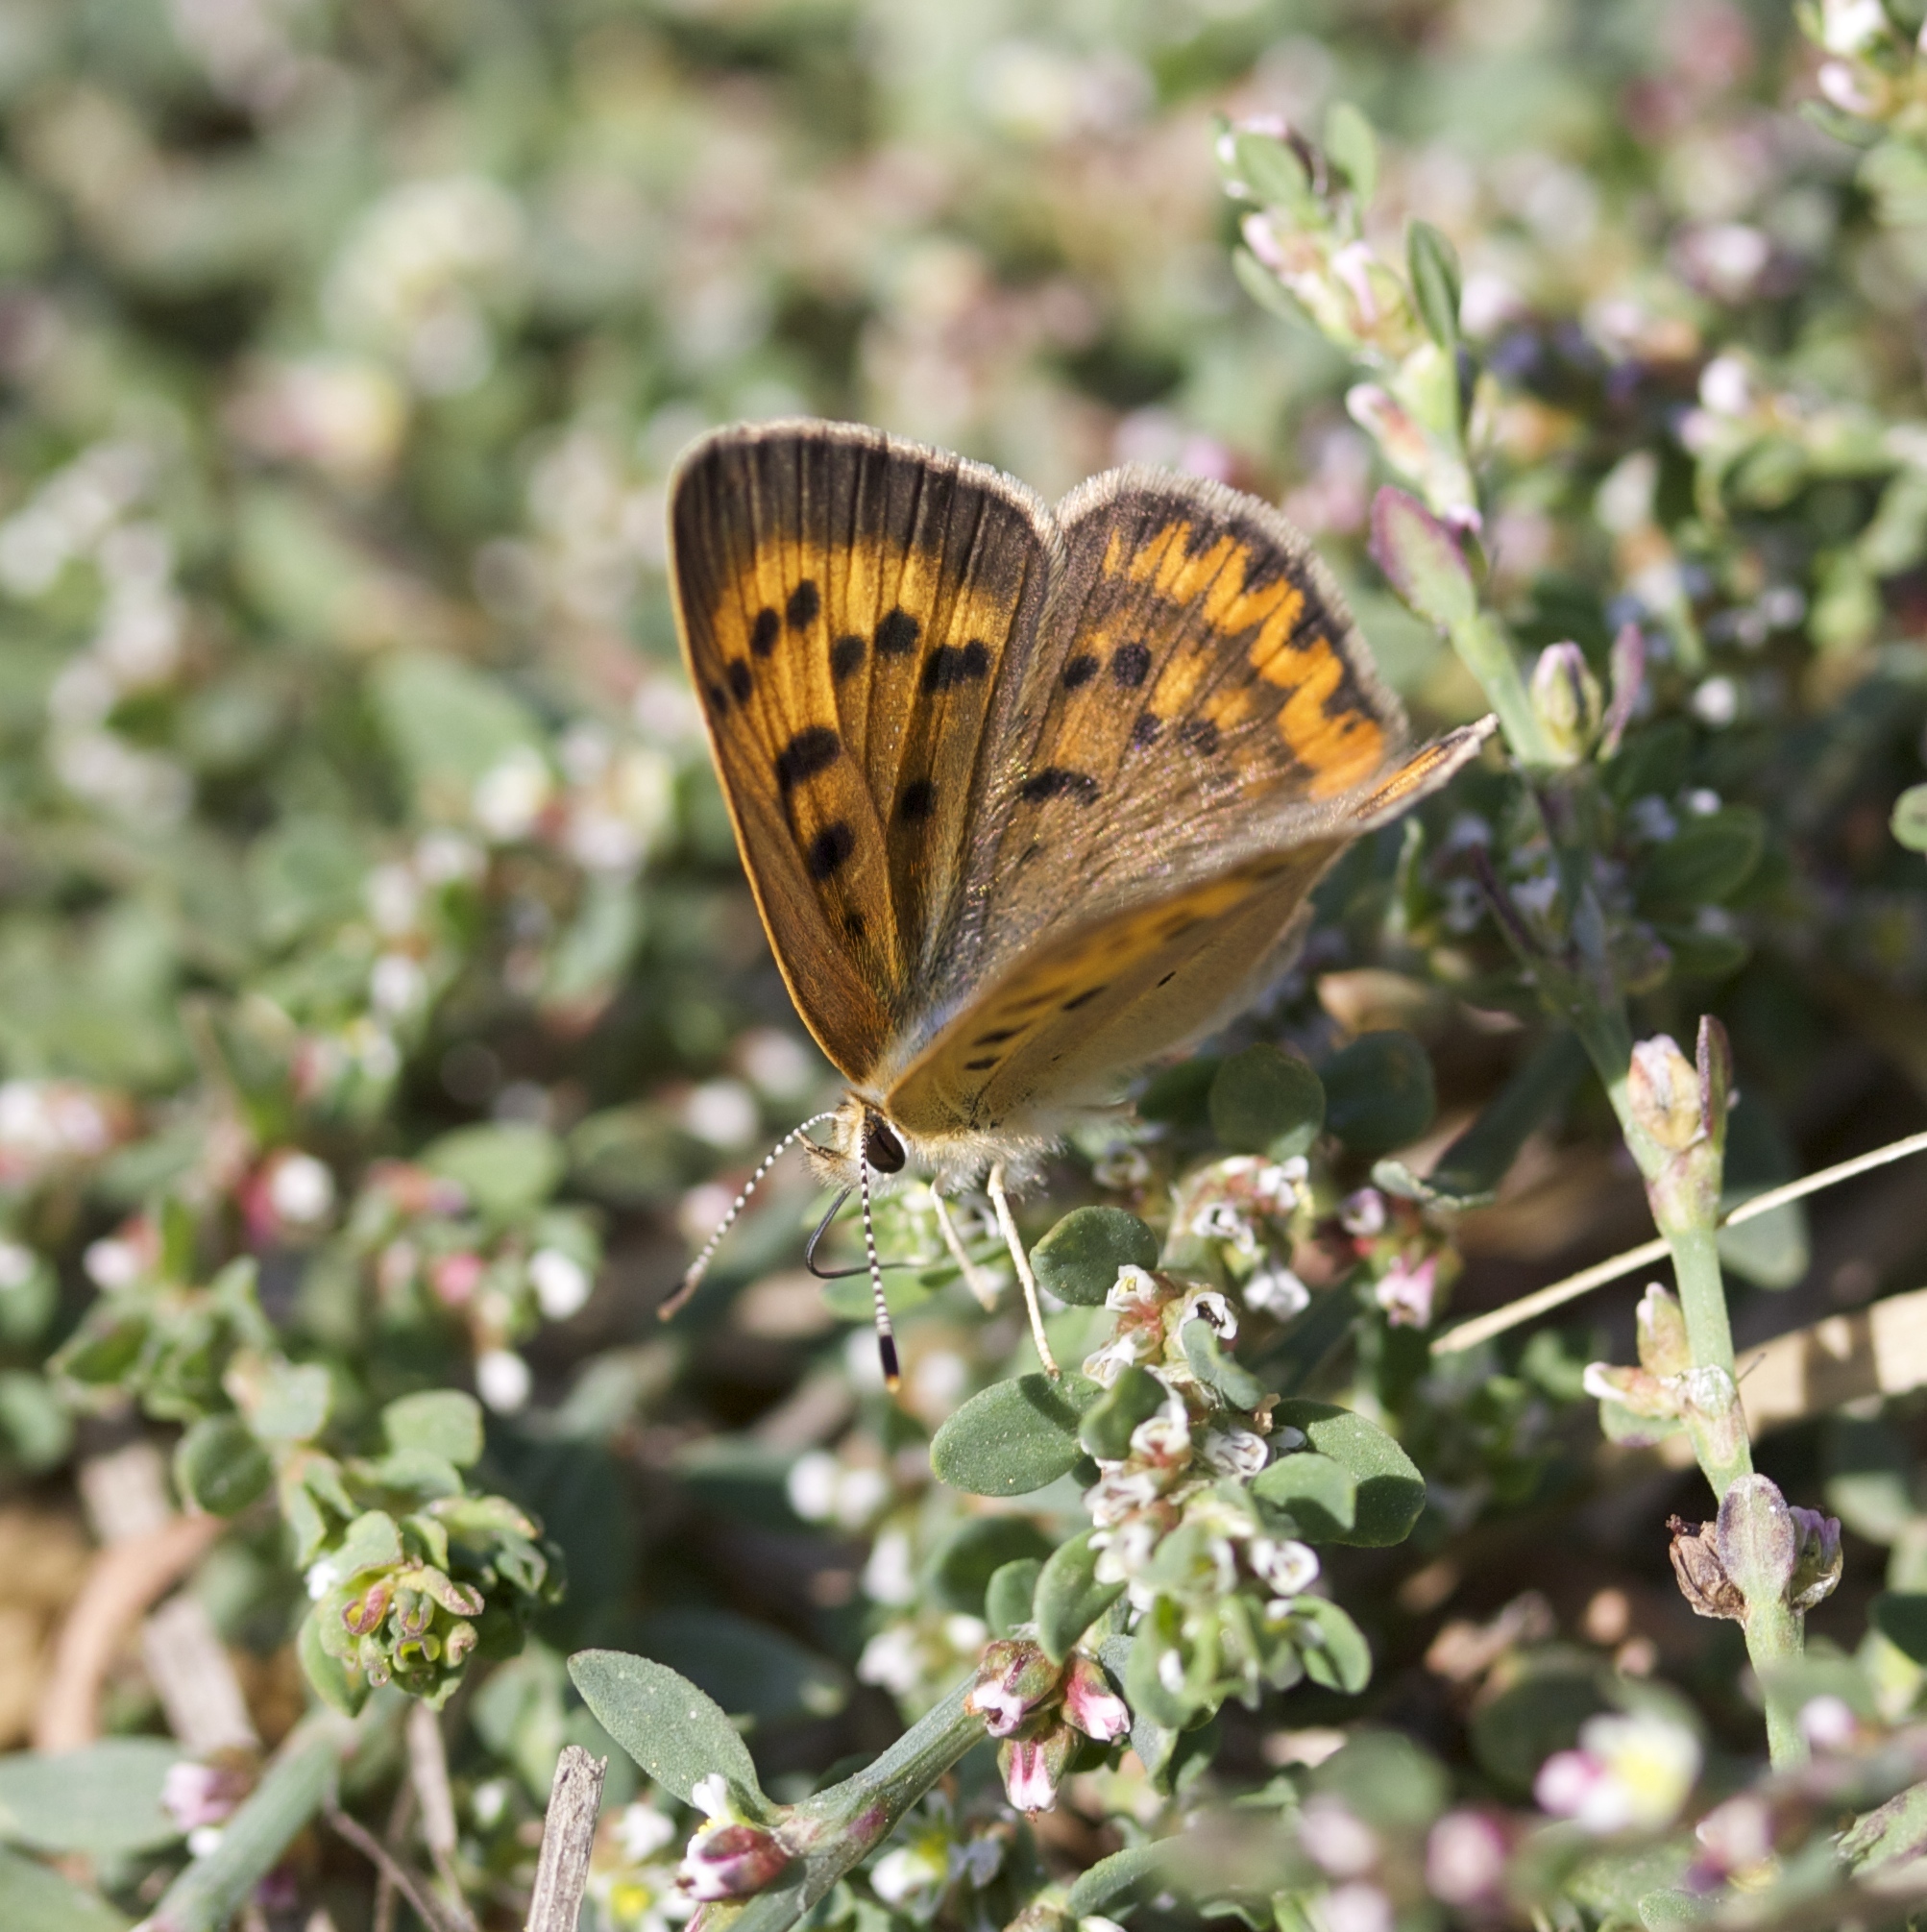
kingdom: Animalia
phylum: Arthropoda
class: Insecta
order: Lepidoptera
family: Lycaenidae
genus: Tharsalea
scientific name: Tharsalea helloides
